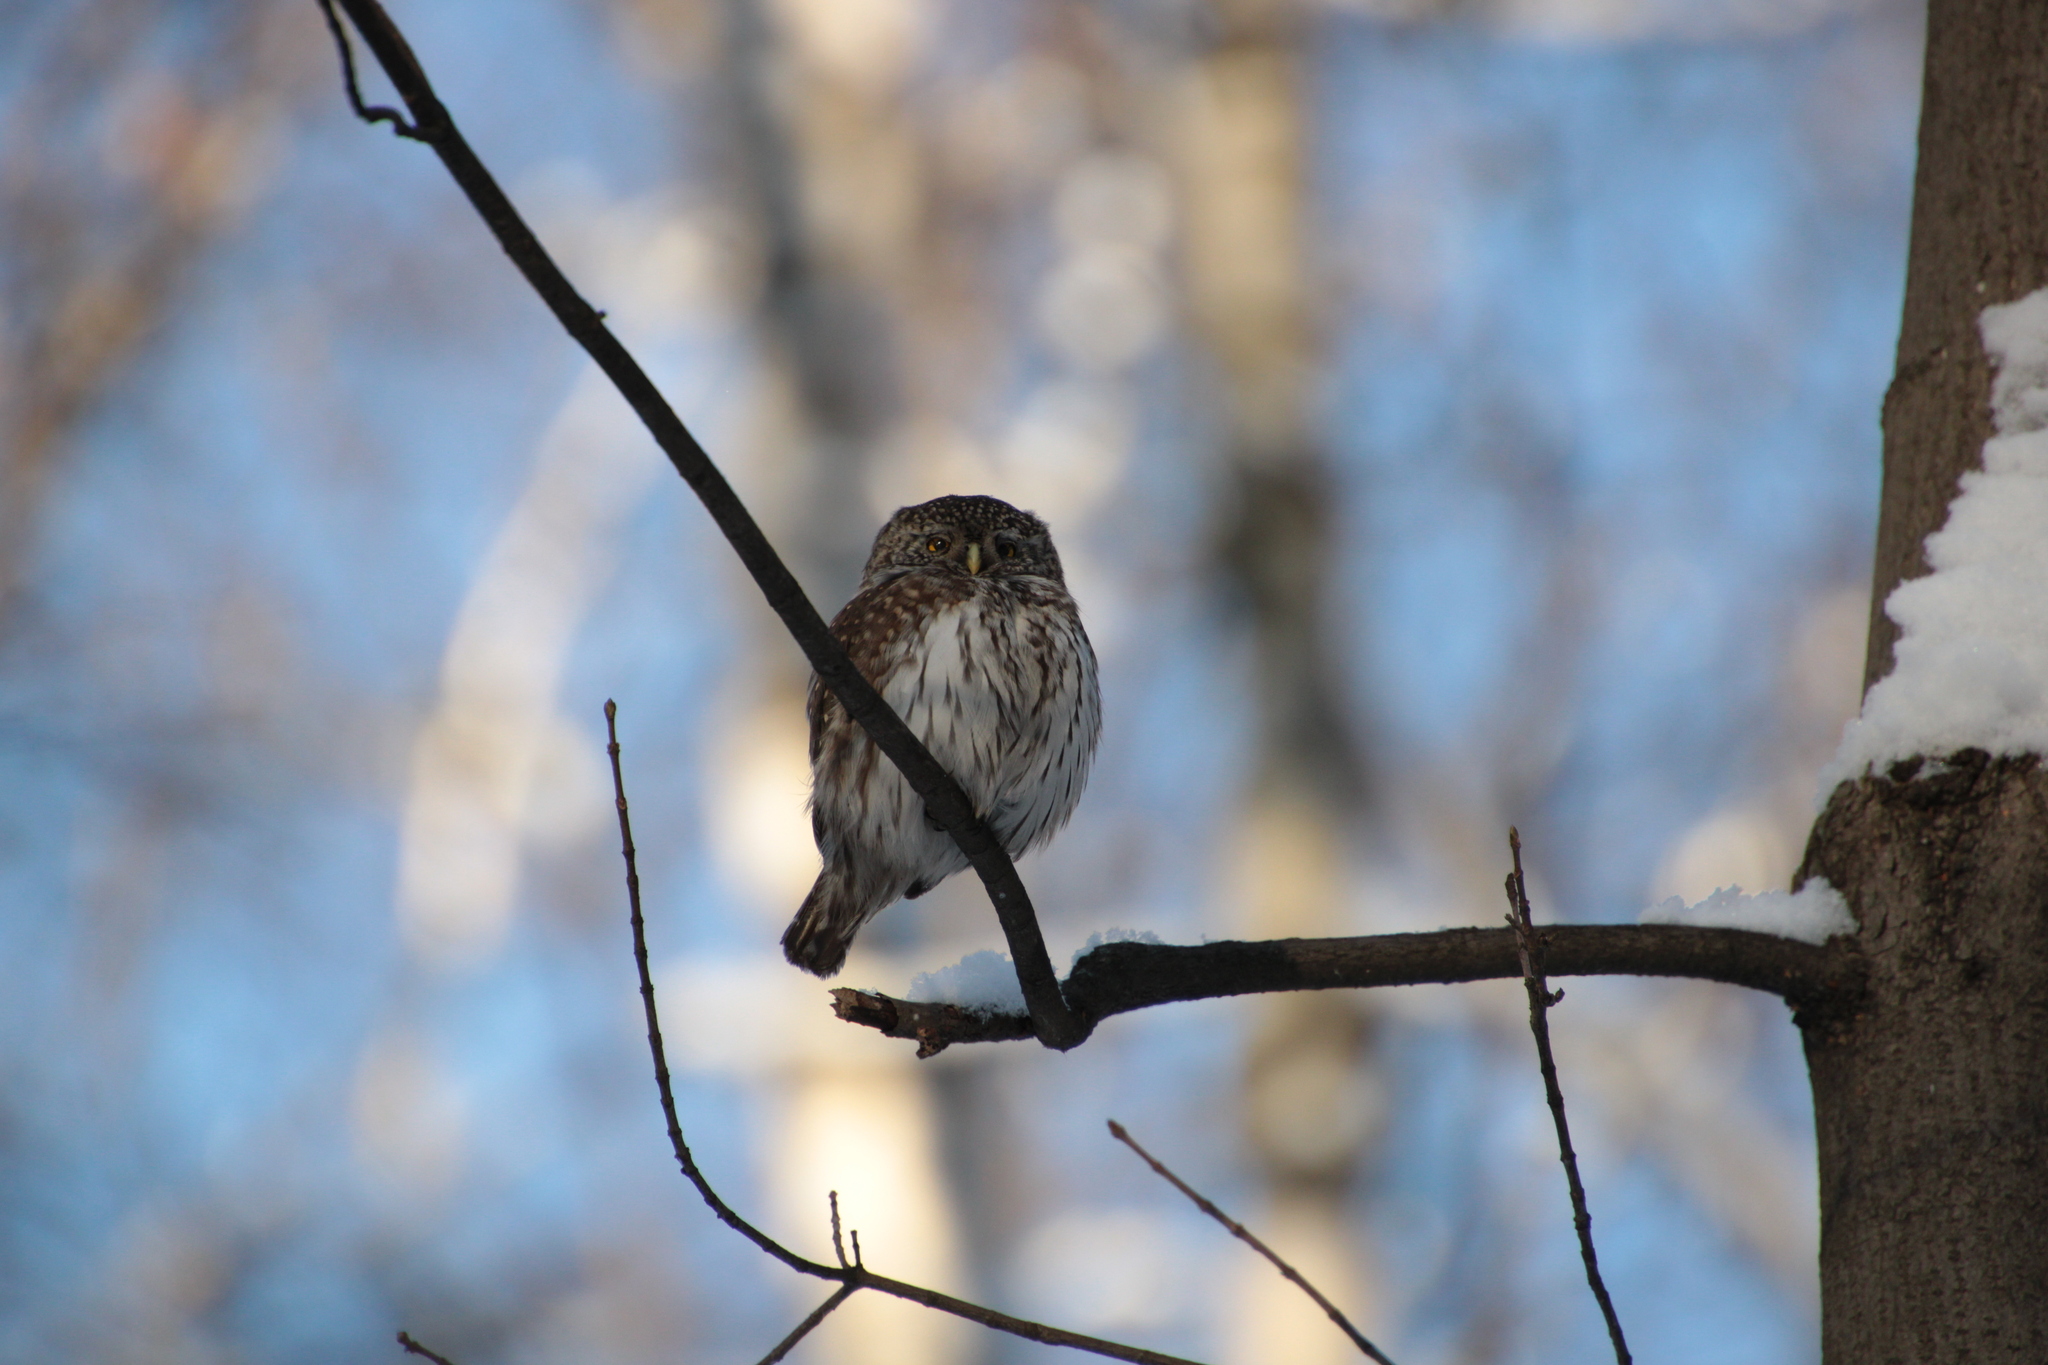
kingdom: Animalia
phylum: Chordata
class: Aves
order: Strigiformes
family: Strigidae
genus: Glaucidium
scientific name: Glaucidium passerinum
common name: Eurasian pygmy owl
